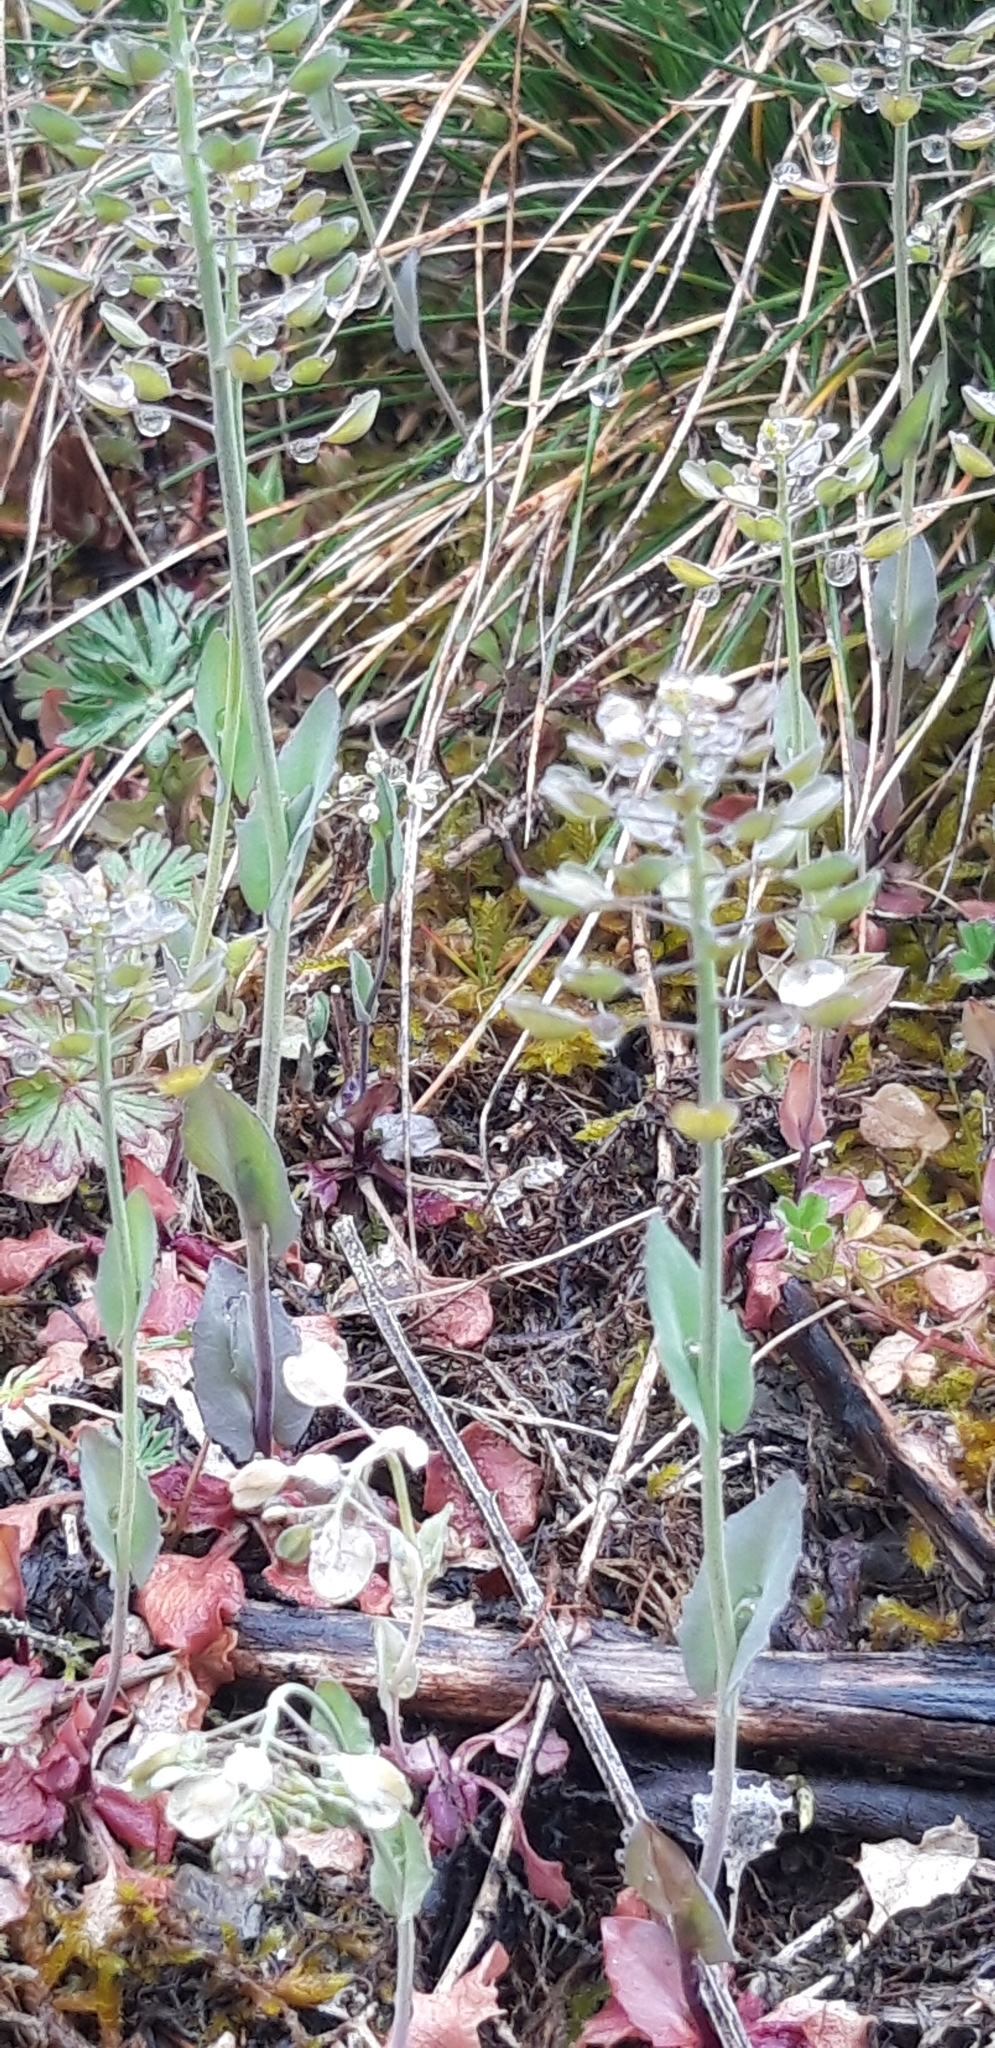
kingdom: Plantae
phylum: Tracheophyta
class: Magnoliopsida
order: Brassicales
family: Brassicaceae
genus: Noccaea
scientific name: Noccaea perfoliata
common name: Perfoliate pennycress
